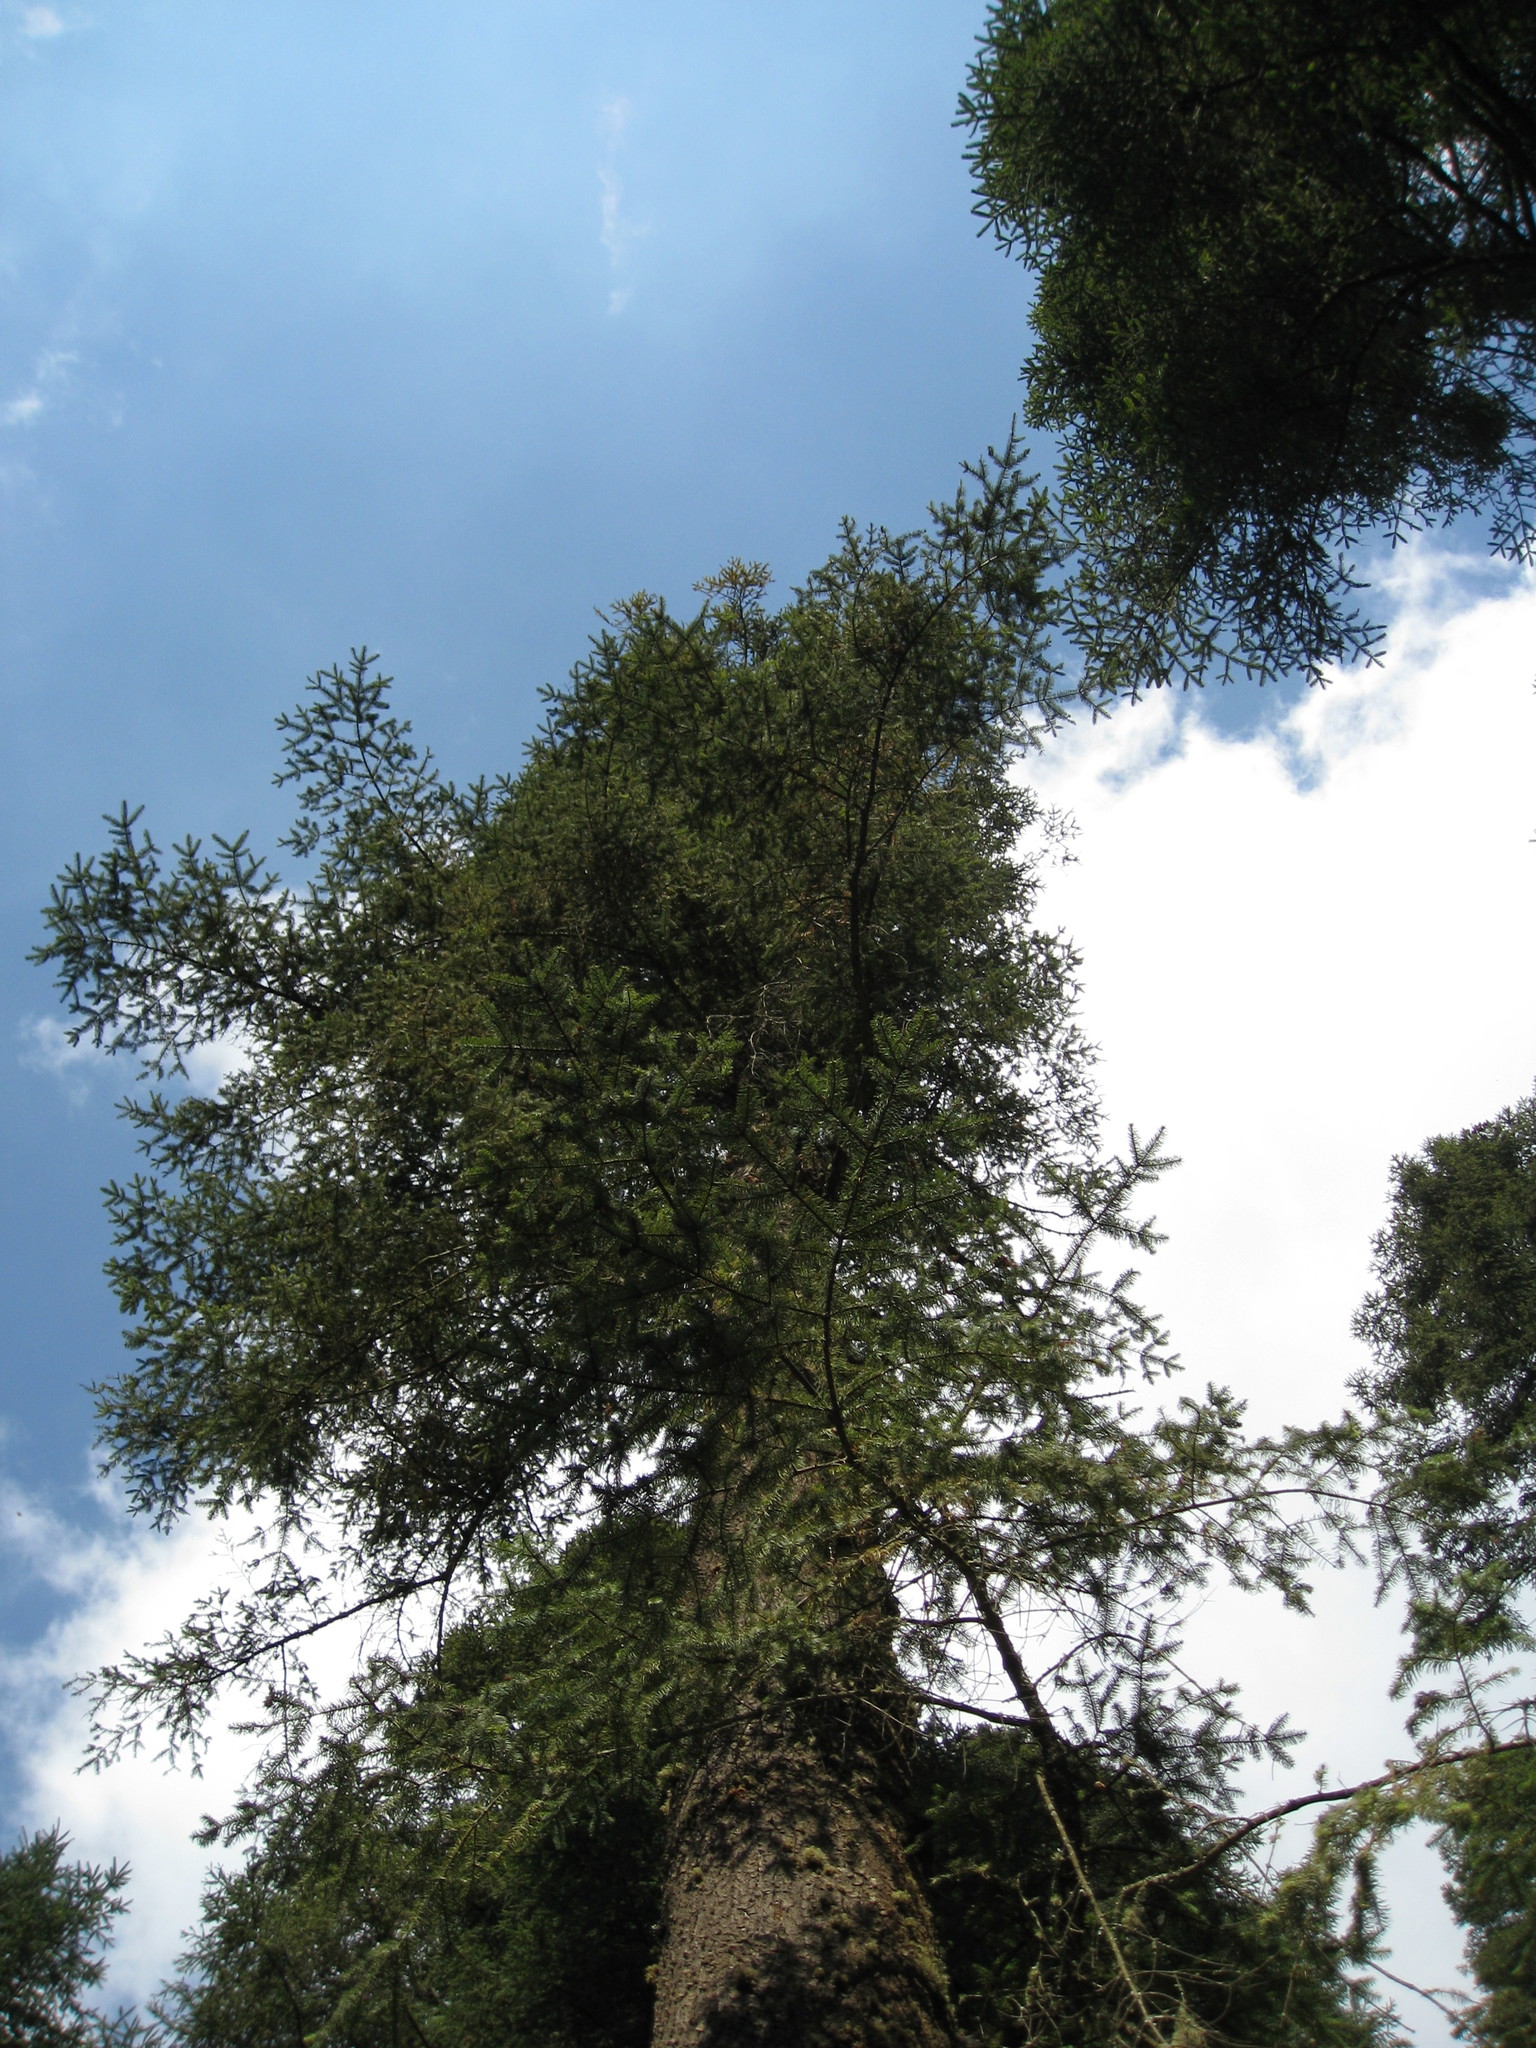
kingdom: Plantae
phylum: Tracheophyta
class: Pinopsida
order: Pinales
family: Pinaceae
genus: Abies
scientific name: Abies religiosa
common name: Sacred fir
